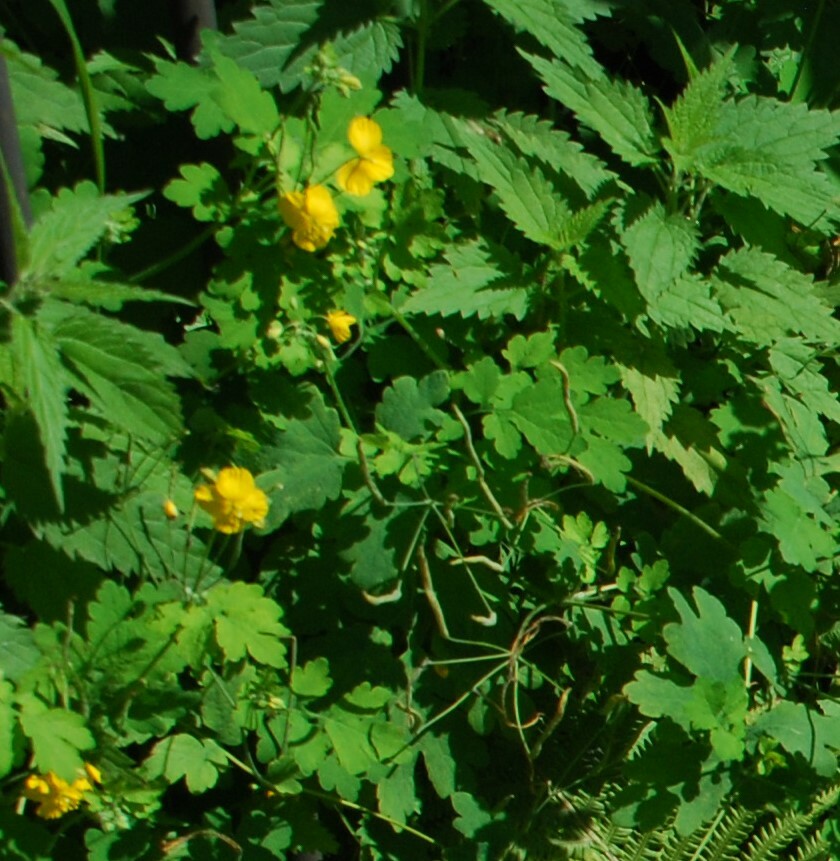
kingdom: Plantae
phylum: Tracheophyta
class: Magnoliopsida
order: Ranunculales
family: Papaveraceae
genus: Chelidonium
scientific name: Chelidonium majus
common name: Greater celandine
